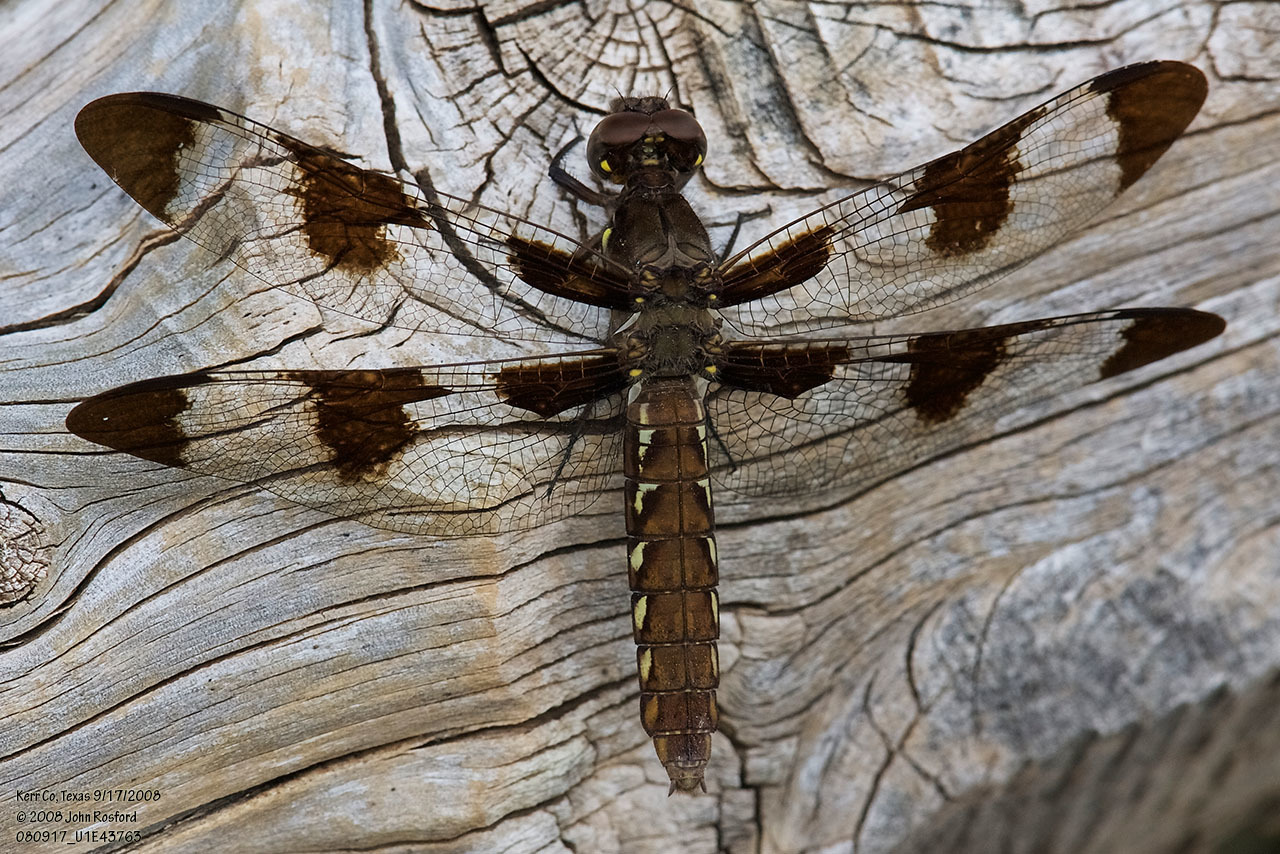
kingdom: Animalia
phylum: Arthropoda
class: Insecta
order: Odonata
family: Libellulidae
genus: Plathemis
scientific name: Plathemis lydia
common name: Common whitetail
